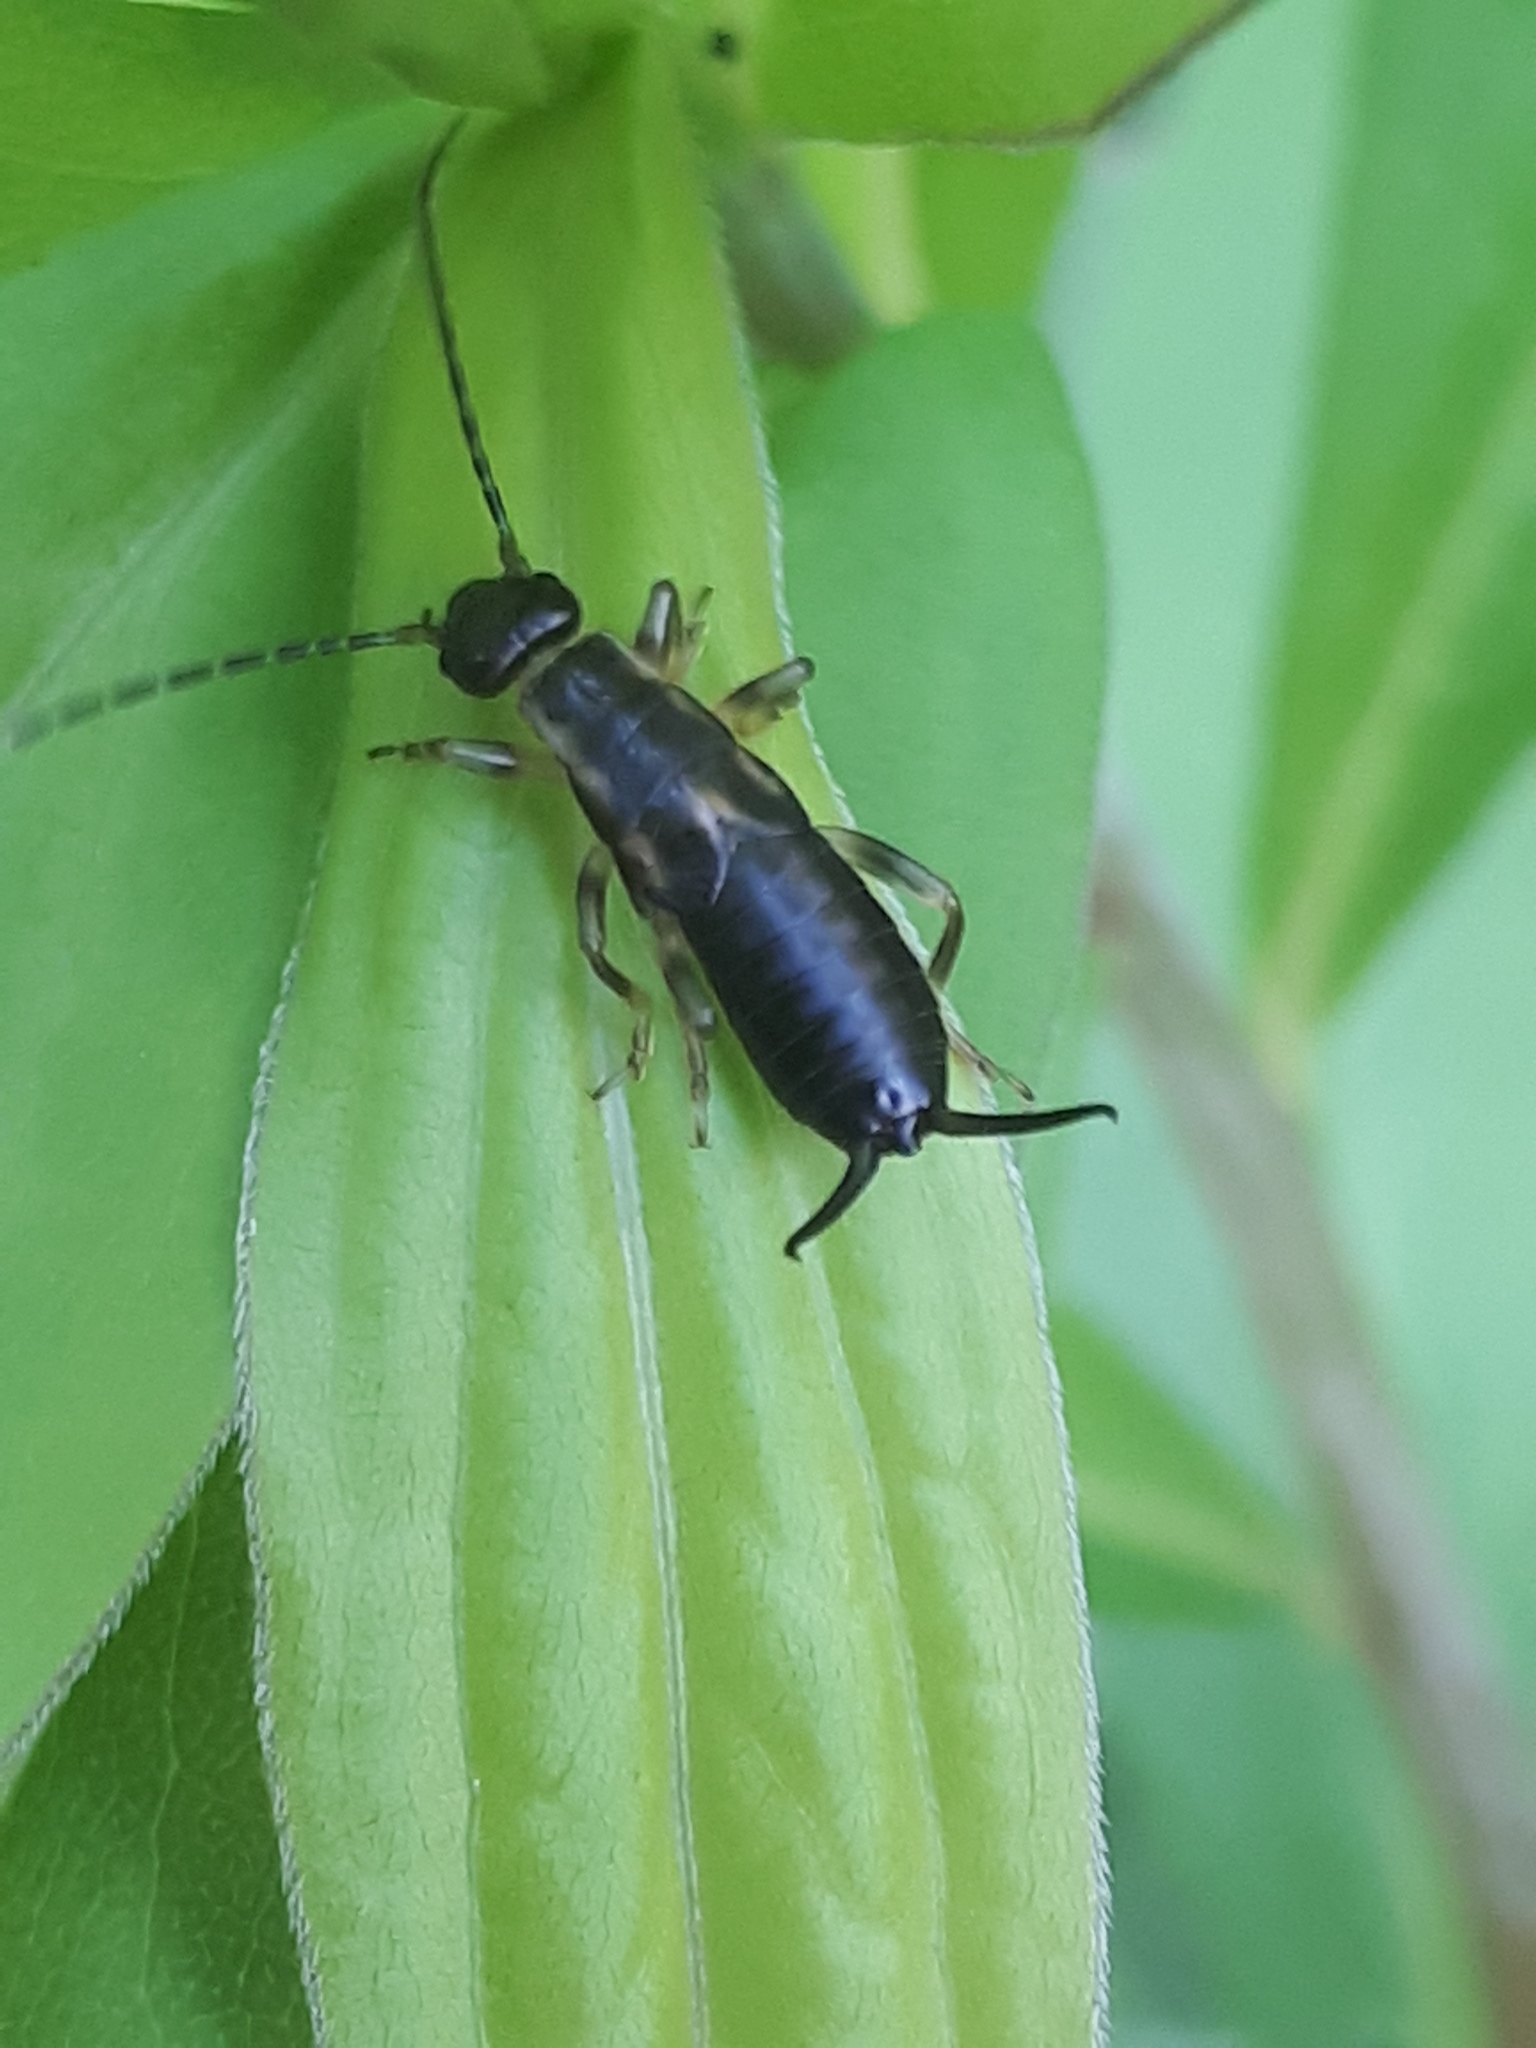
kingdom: Animalia
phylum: Arthropoda
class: Insecta
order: Dermaptera
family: Forficulidae
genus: Forficula
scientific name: Forficula
